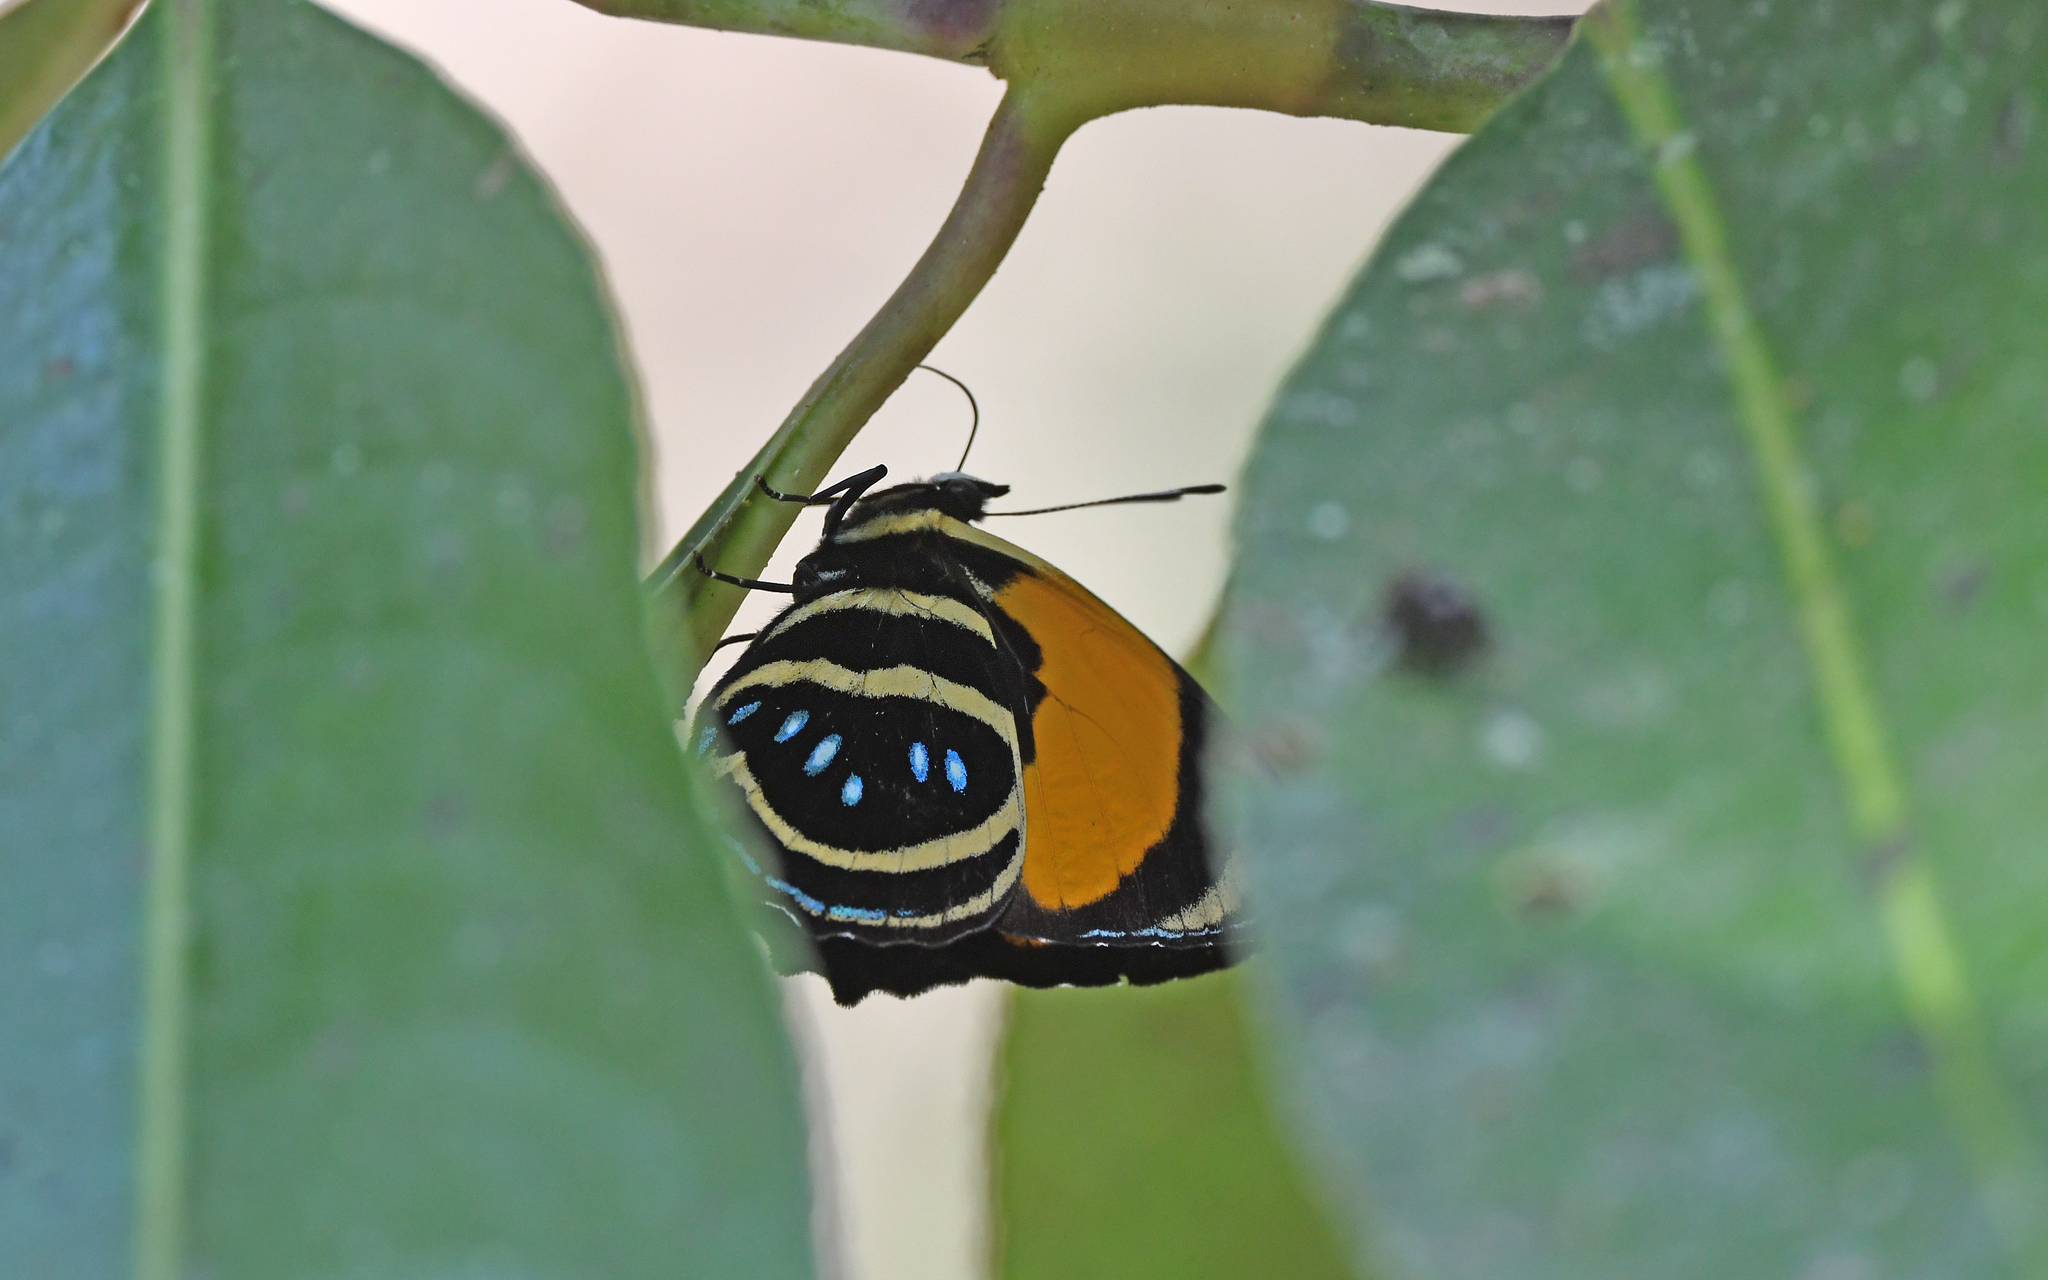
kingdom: Animalia
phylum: Arthropoda
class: Insecta
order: Lepidoptera
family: Nymphalidae
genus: Catagramma
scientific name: Catagramma Callicore lyca
